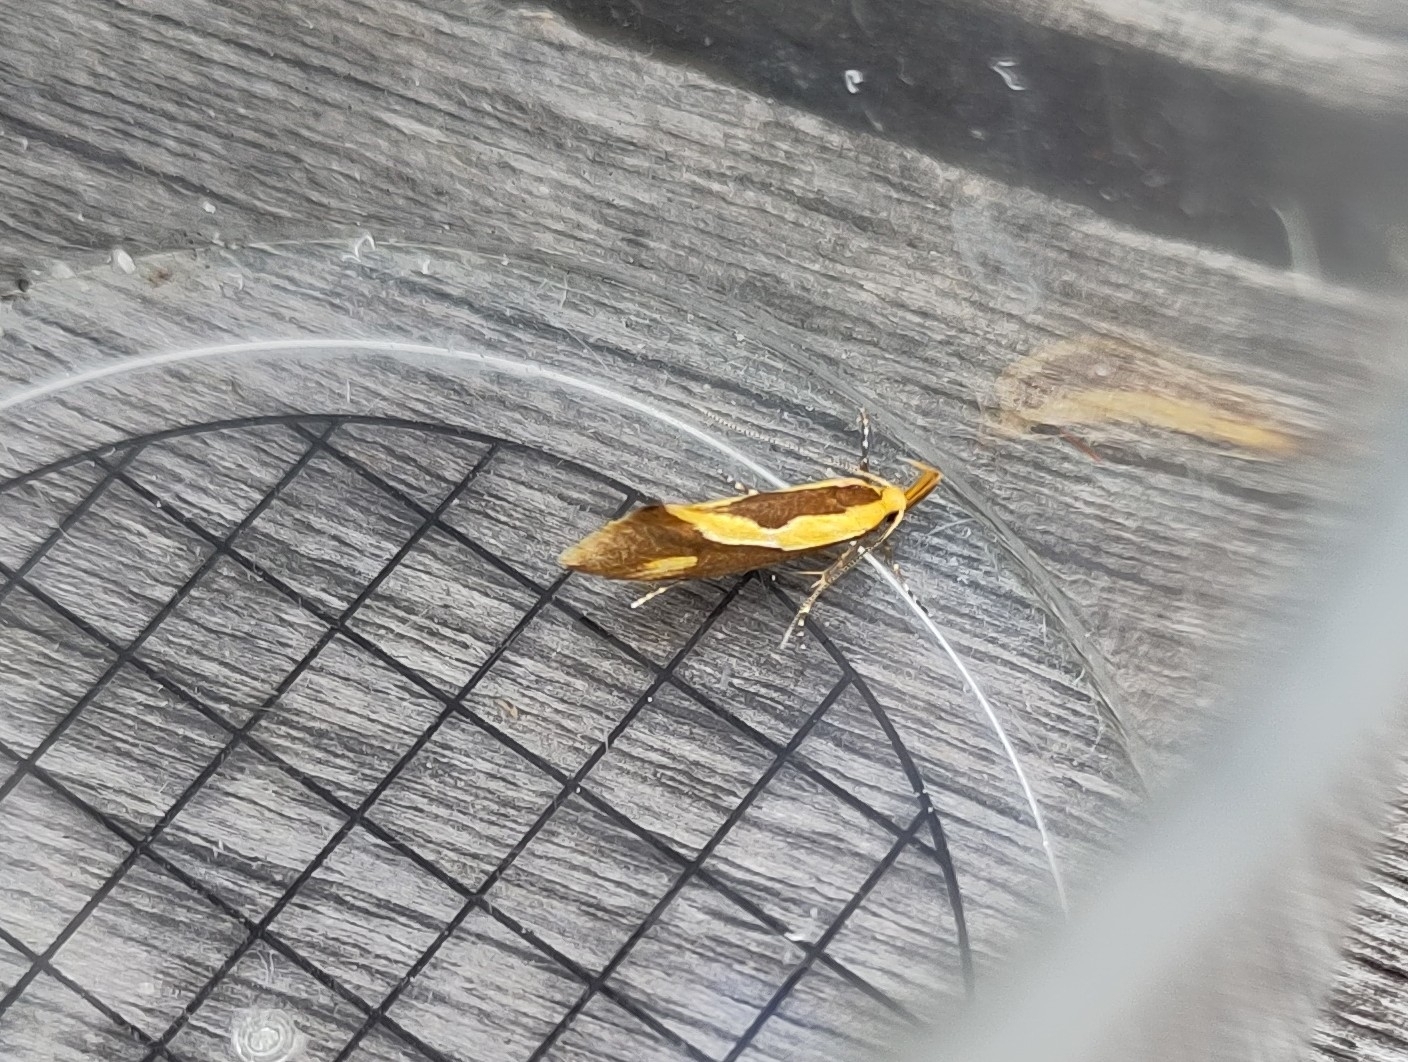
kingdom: Animalia
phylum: Arthropoda
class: Insecta
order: Lepidoptera
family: Oecophoridae
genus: Harpella
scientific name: Harpella forficella
